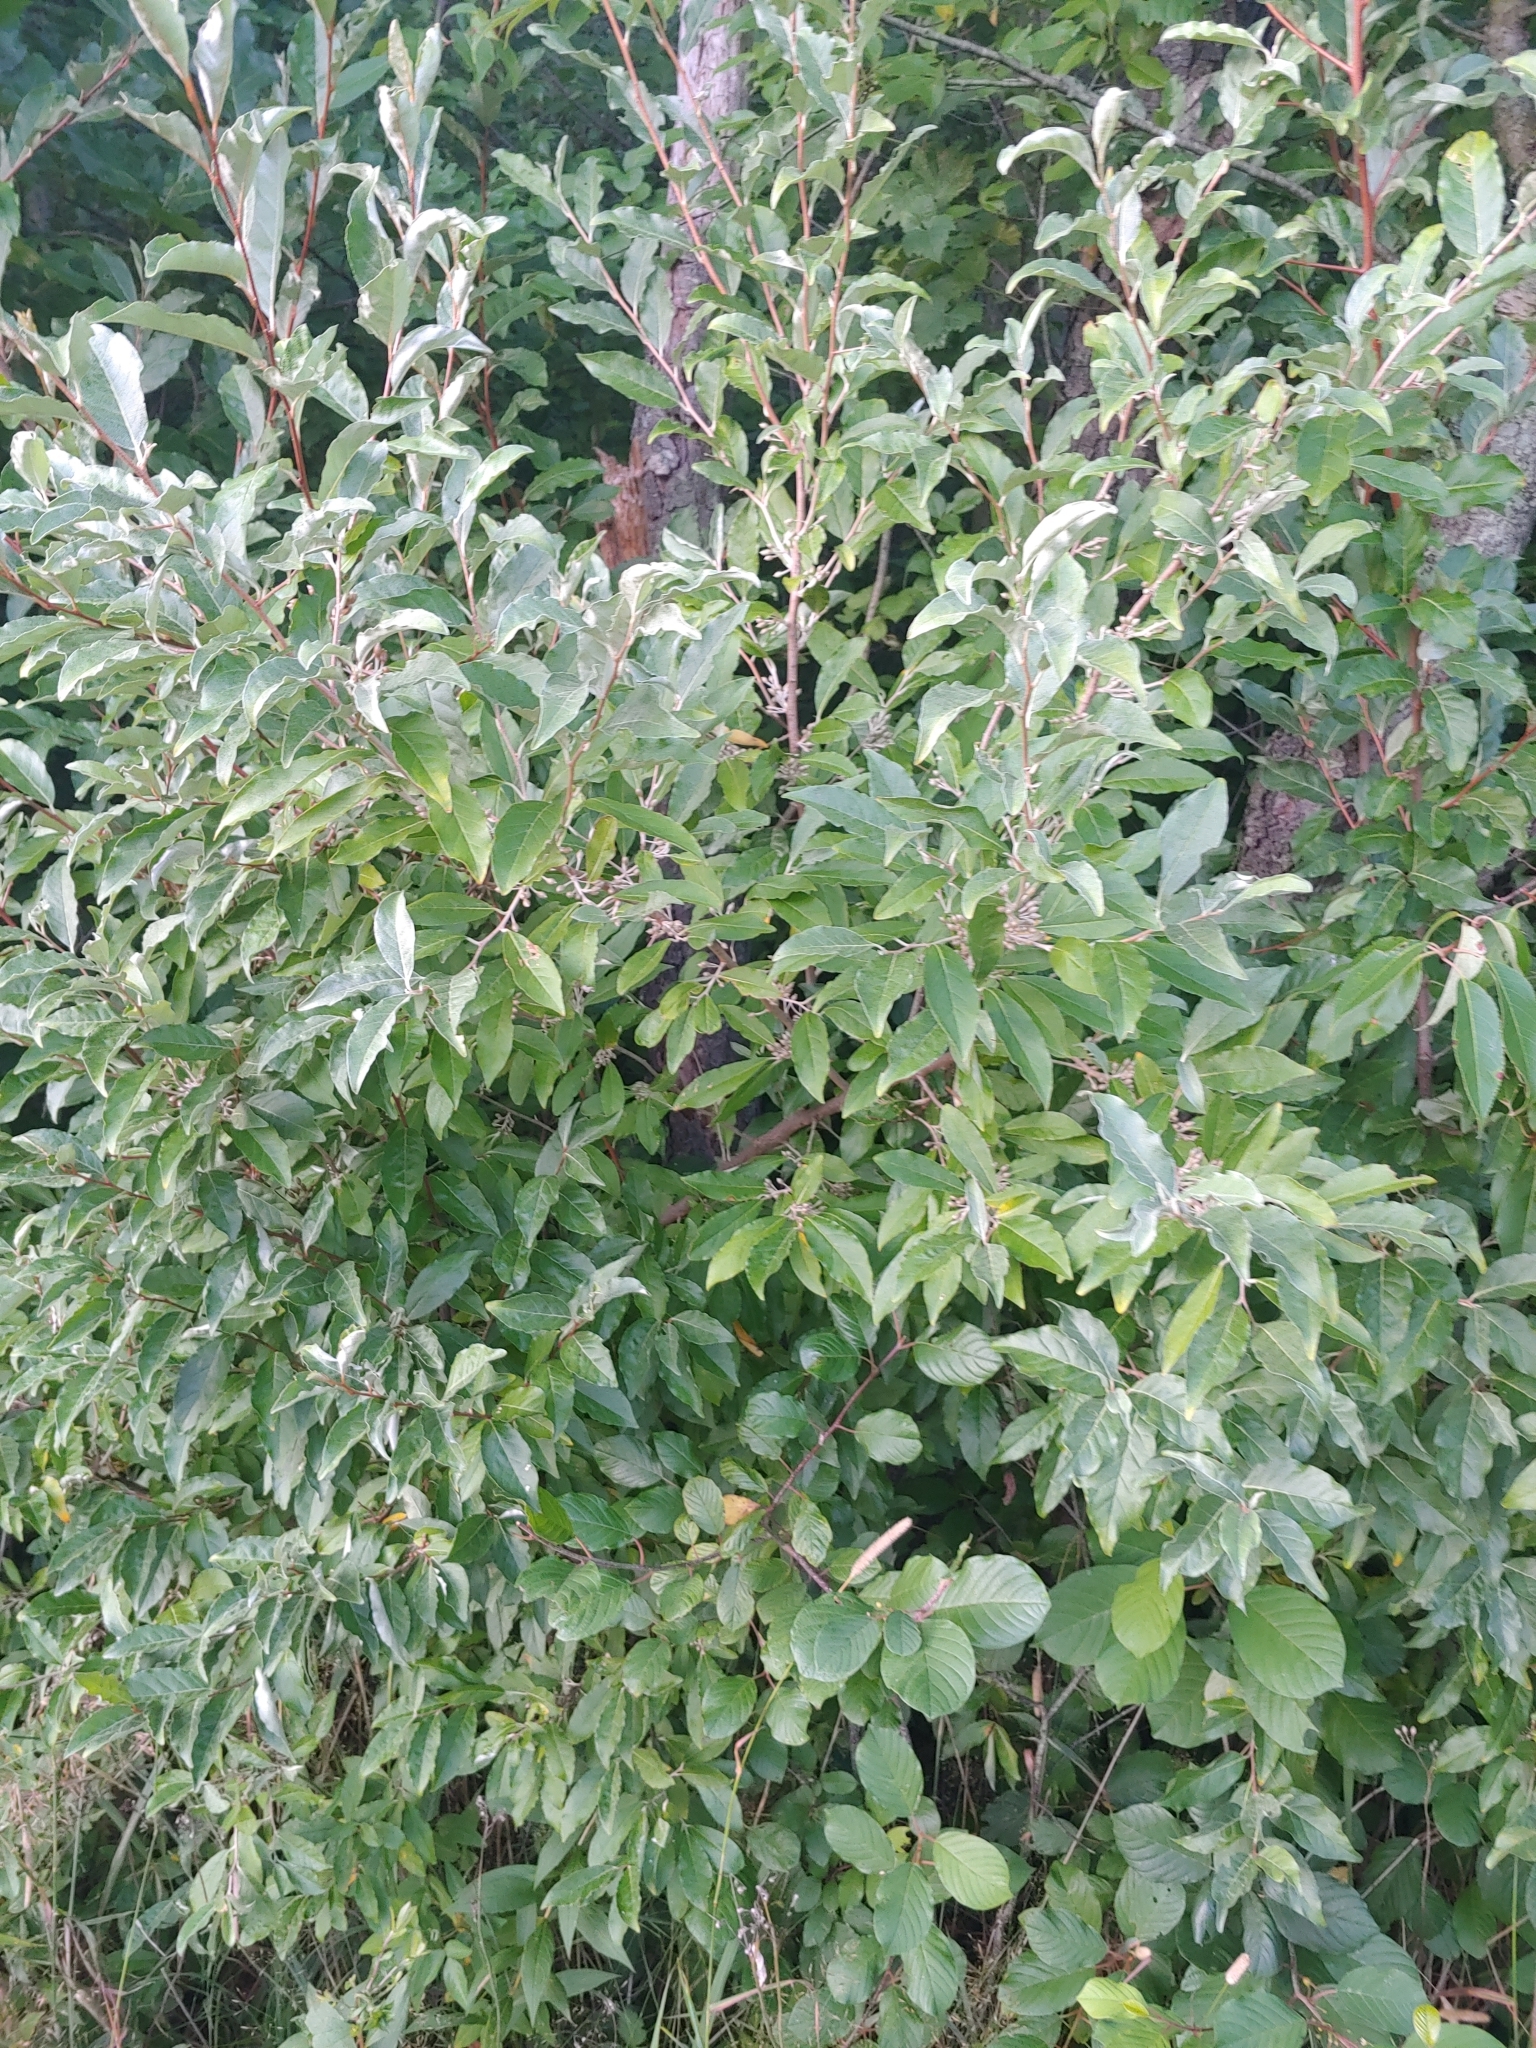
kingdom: Plantae
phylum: Tracheophyta
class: Magnoliopsida
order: Rosales
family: Elaeagnaceae
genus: Elaeagnus
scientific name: Elaeagnus umbellata
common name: Autumn olive
